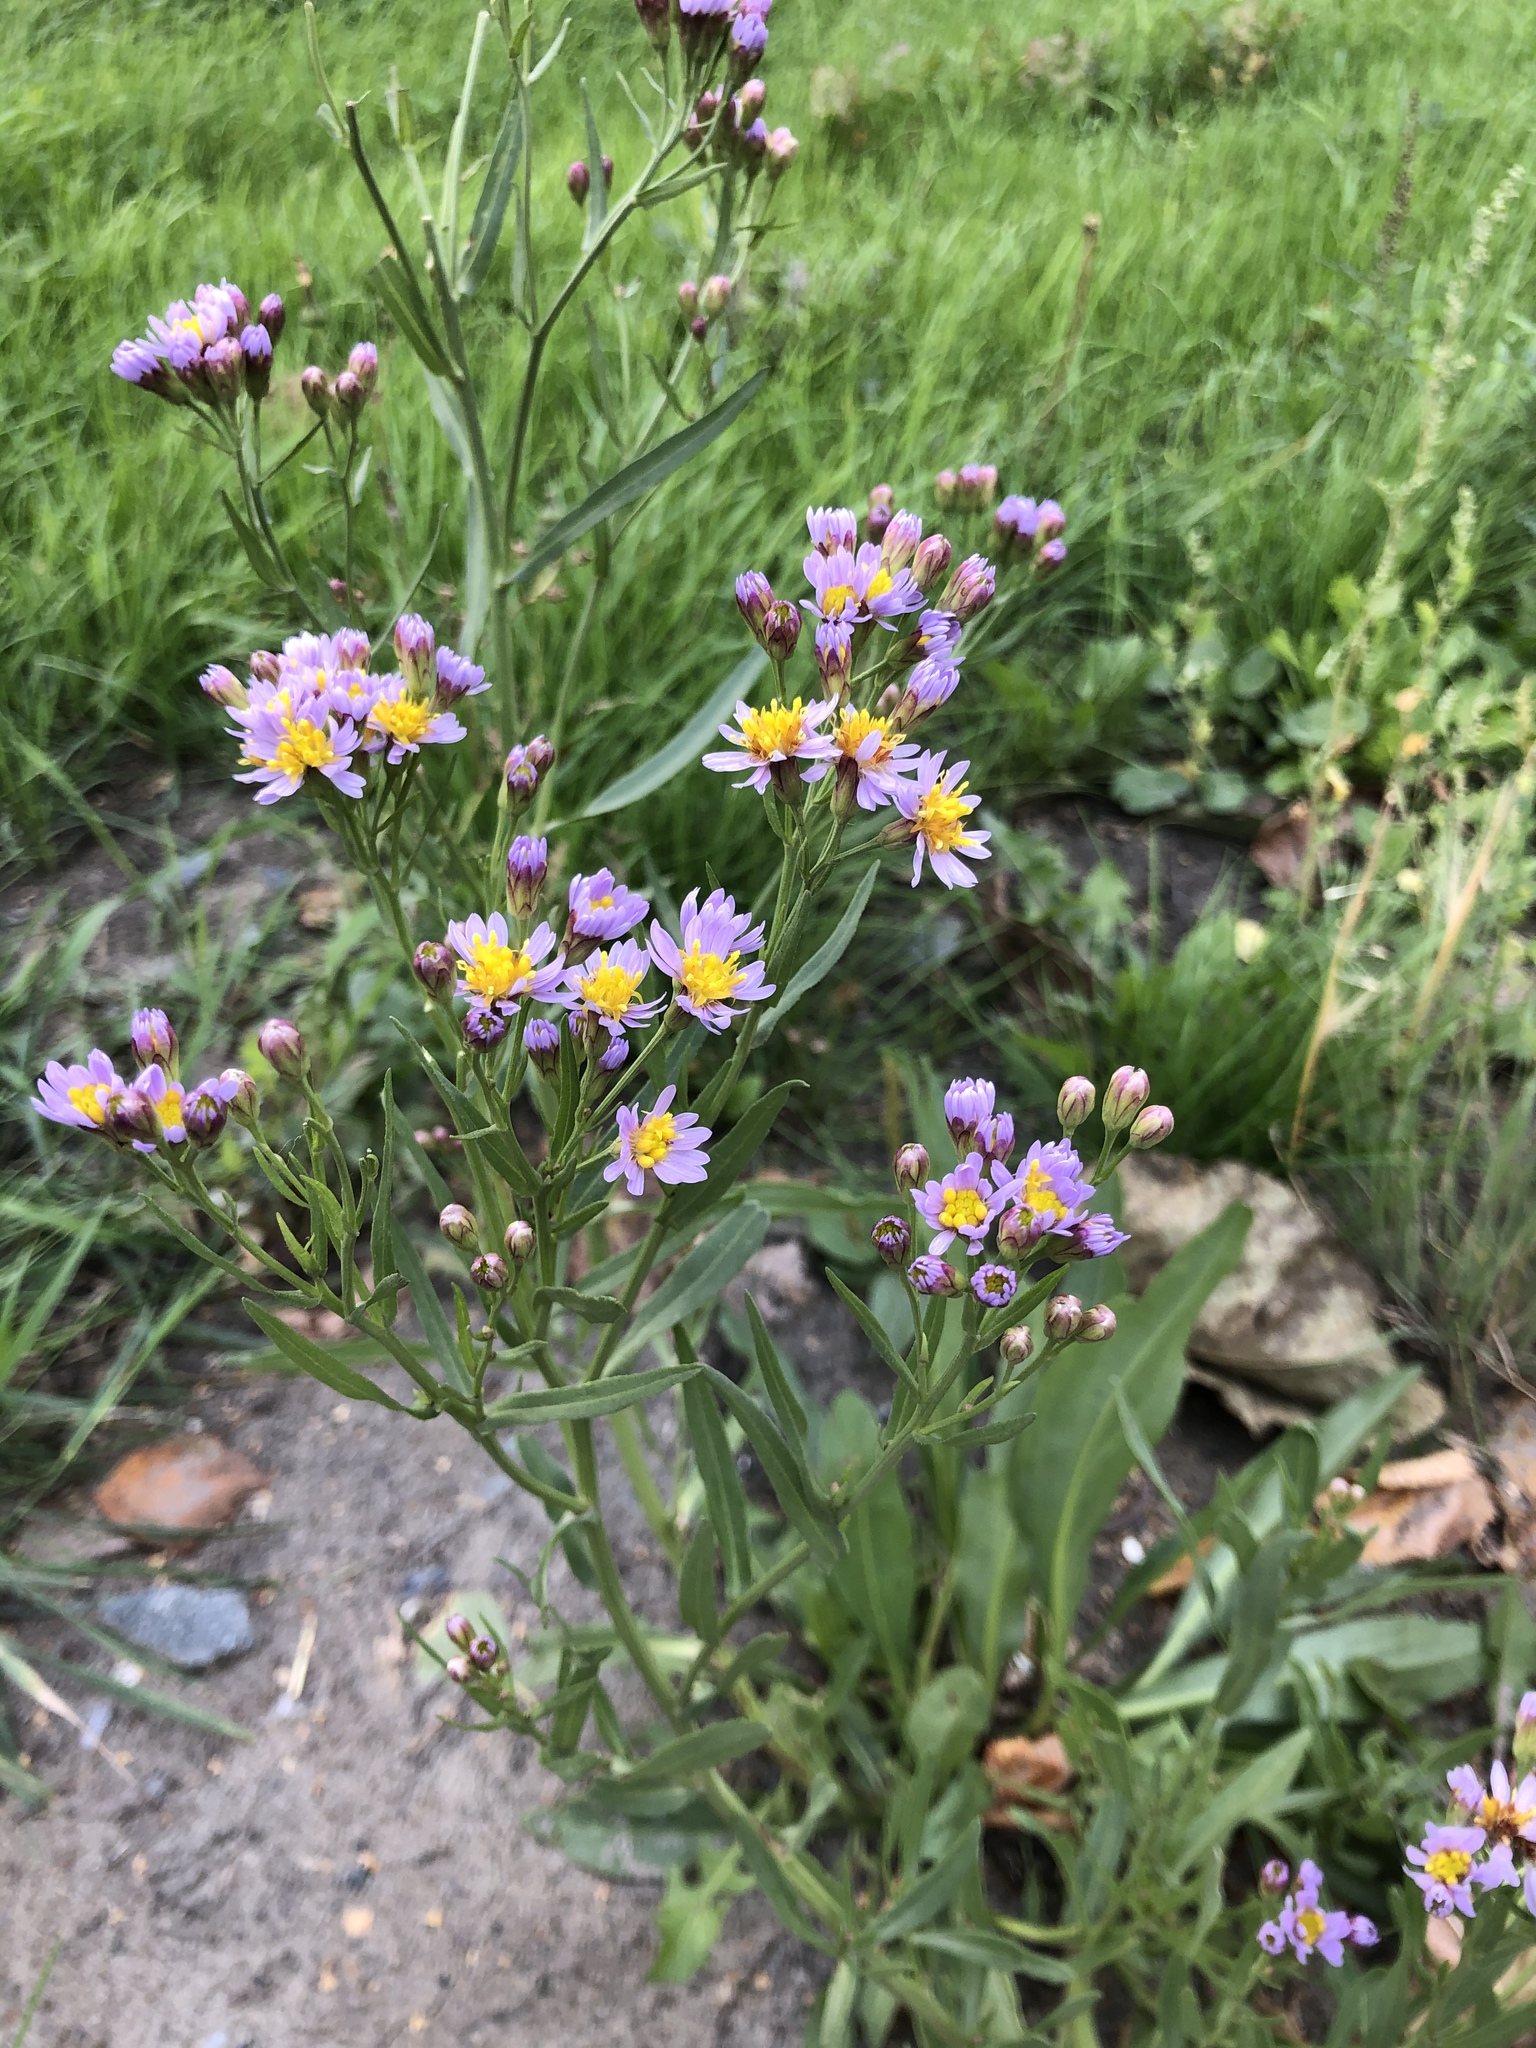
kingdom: Plantae
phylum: Tracheophyta
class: Magnoliopsida
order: Asterales
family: Asteraceae
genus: Tripolium
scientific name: Tripolium pannonicum
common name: Sea aster
